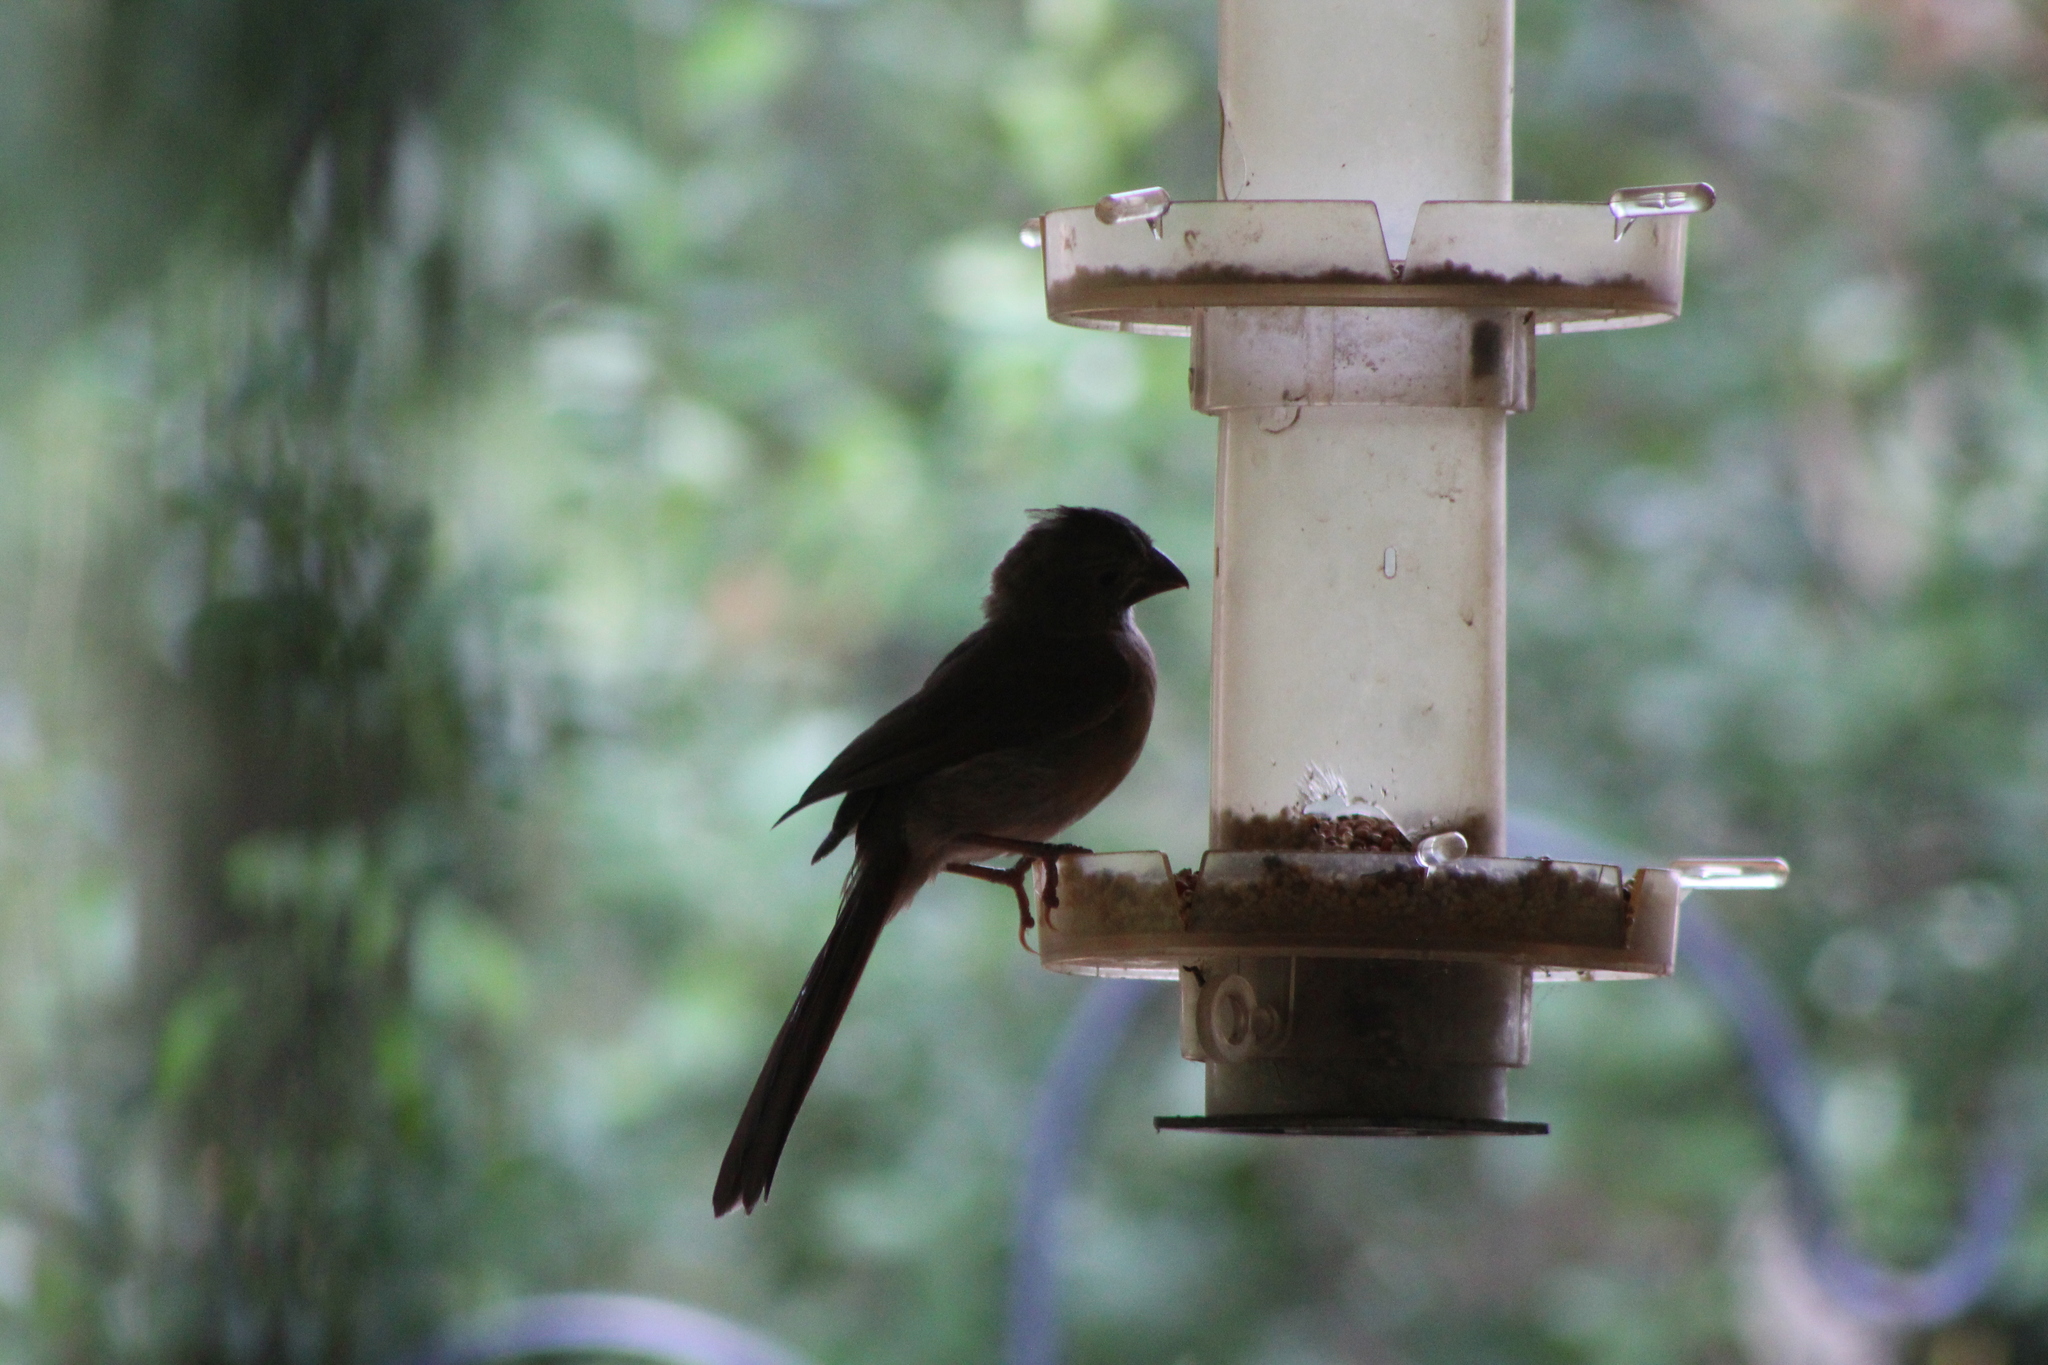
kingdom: Animalia
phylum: Chordata
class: Aves
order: Passeriformes
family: Cardinalidae
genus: Cardinalis
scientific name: Cardinalis cardinalis
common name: Northern cardinal
